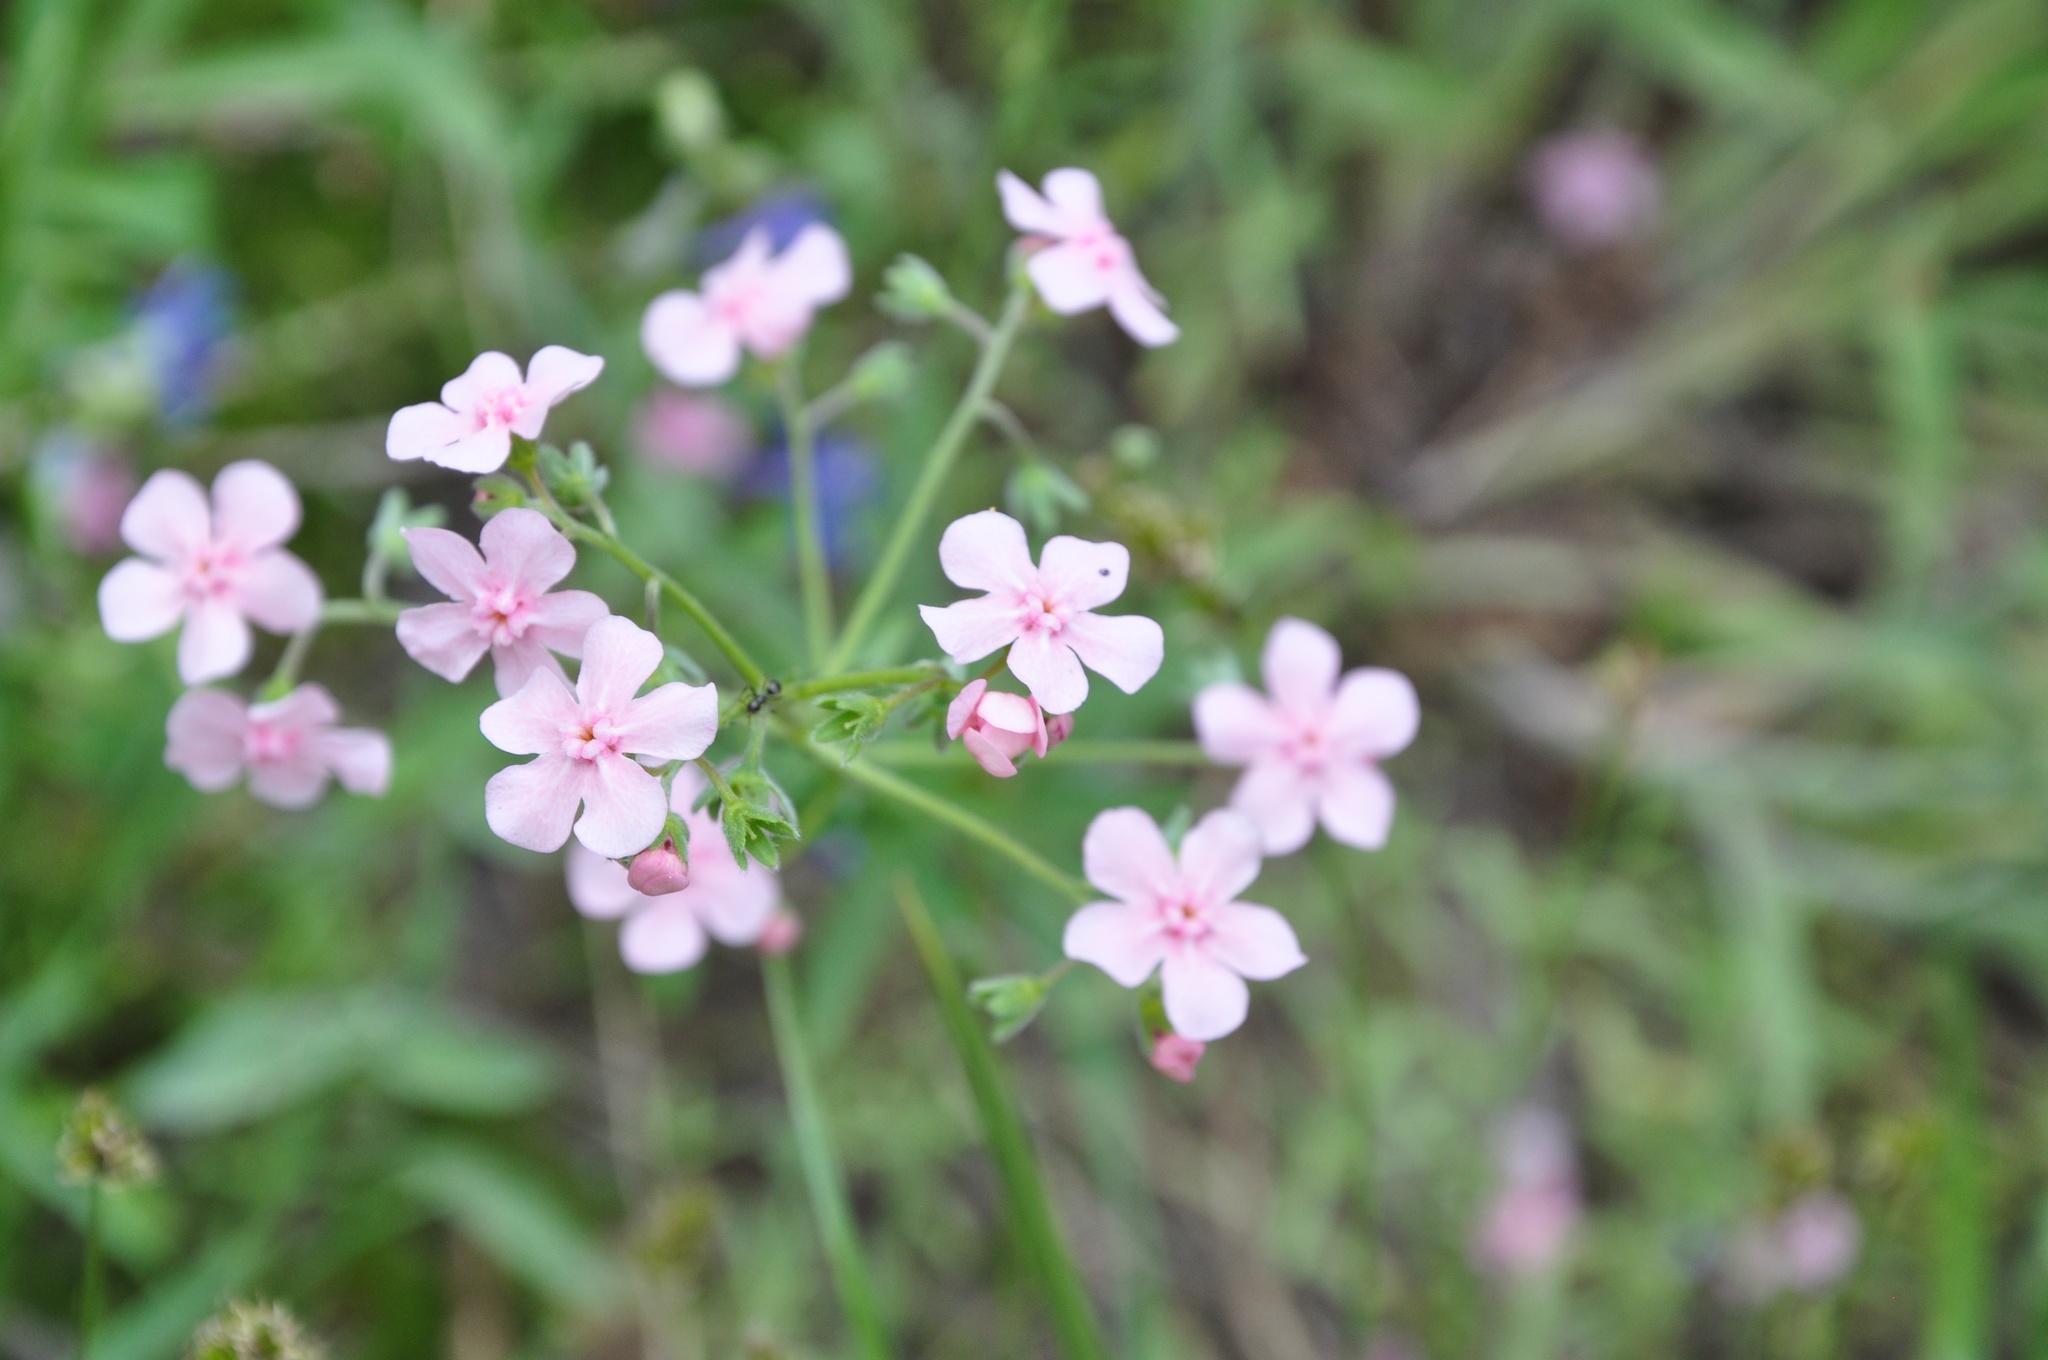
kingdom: Plantae
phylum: Tracheophyta
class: Magnoliopsida
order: Boraginales
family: Boraginaceae
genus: Hackelia
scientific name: Hackelia mundula
